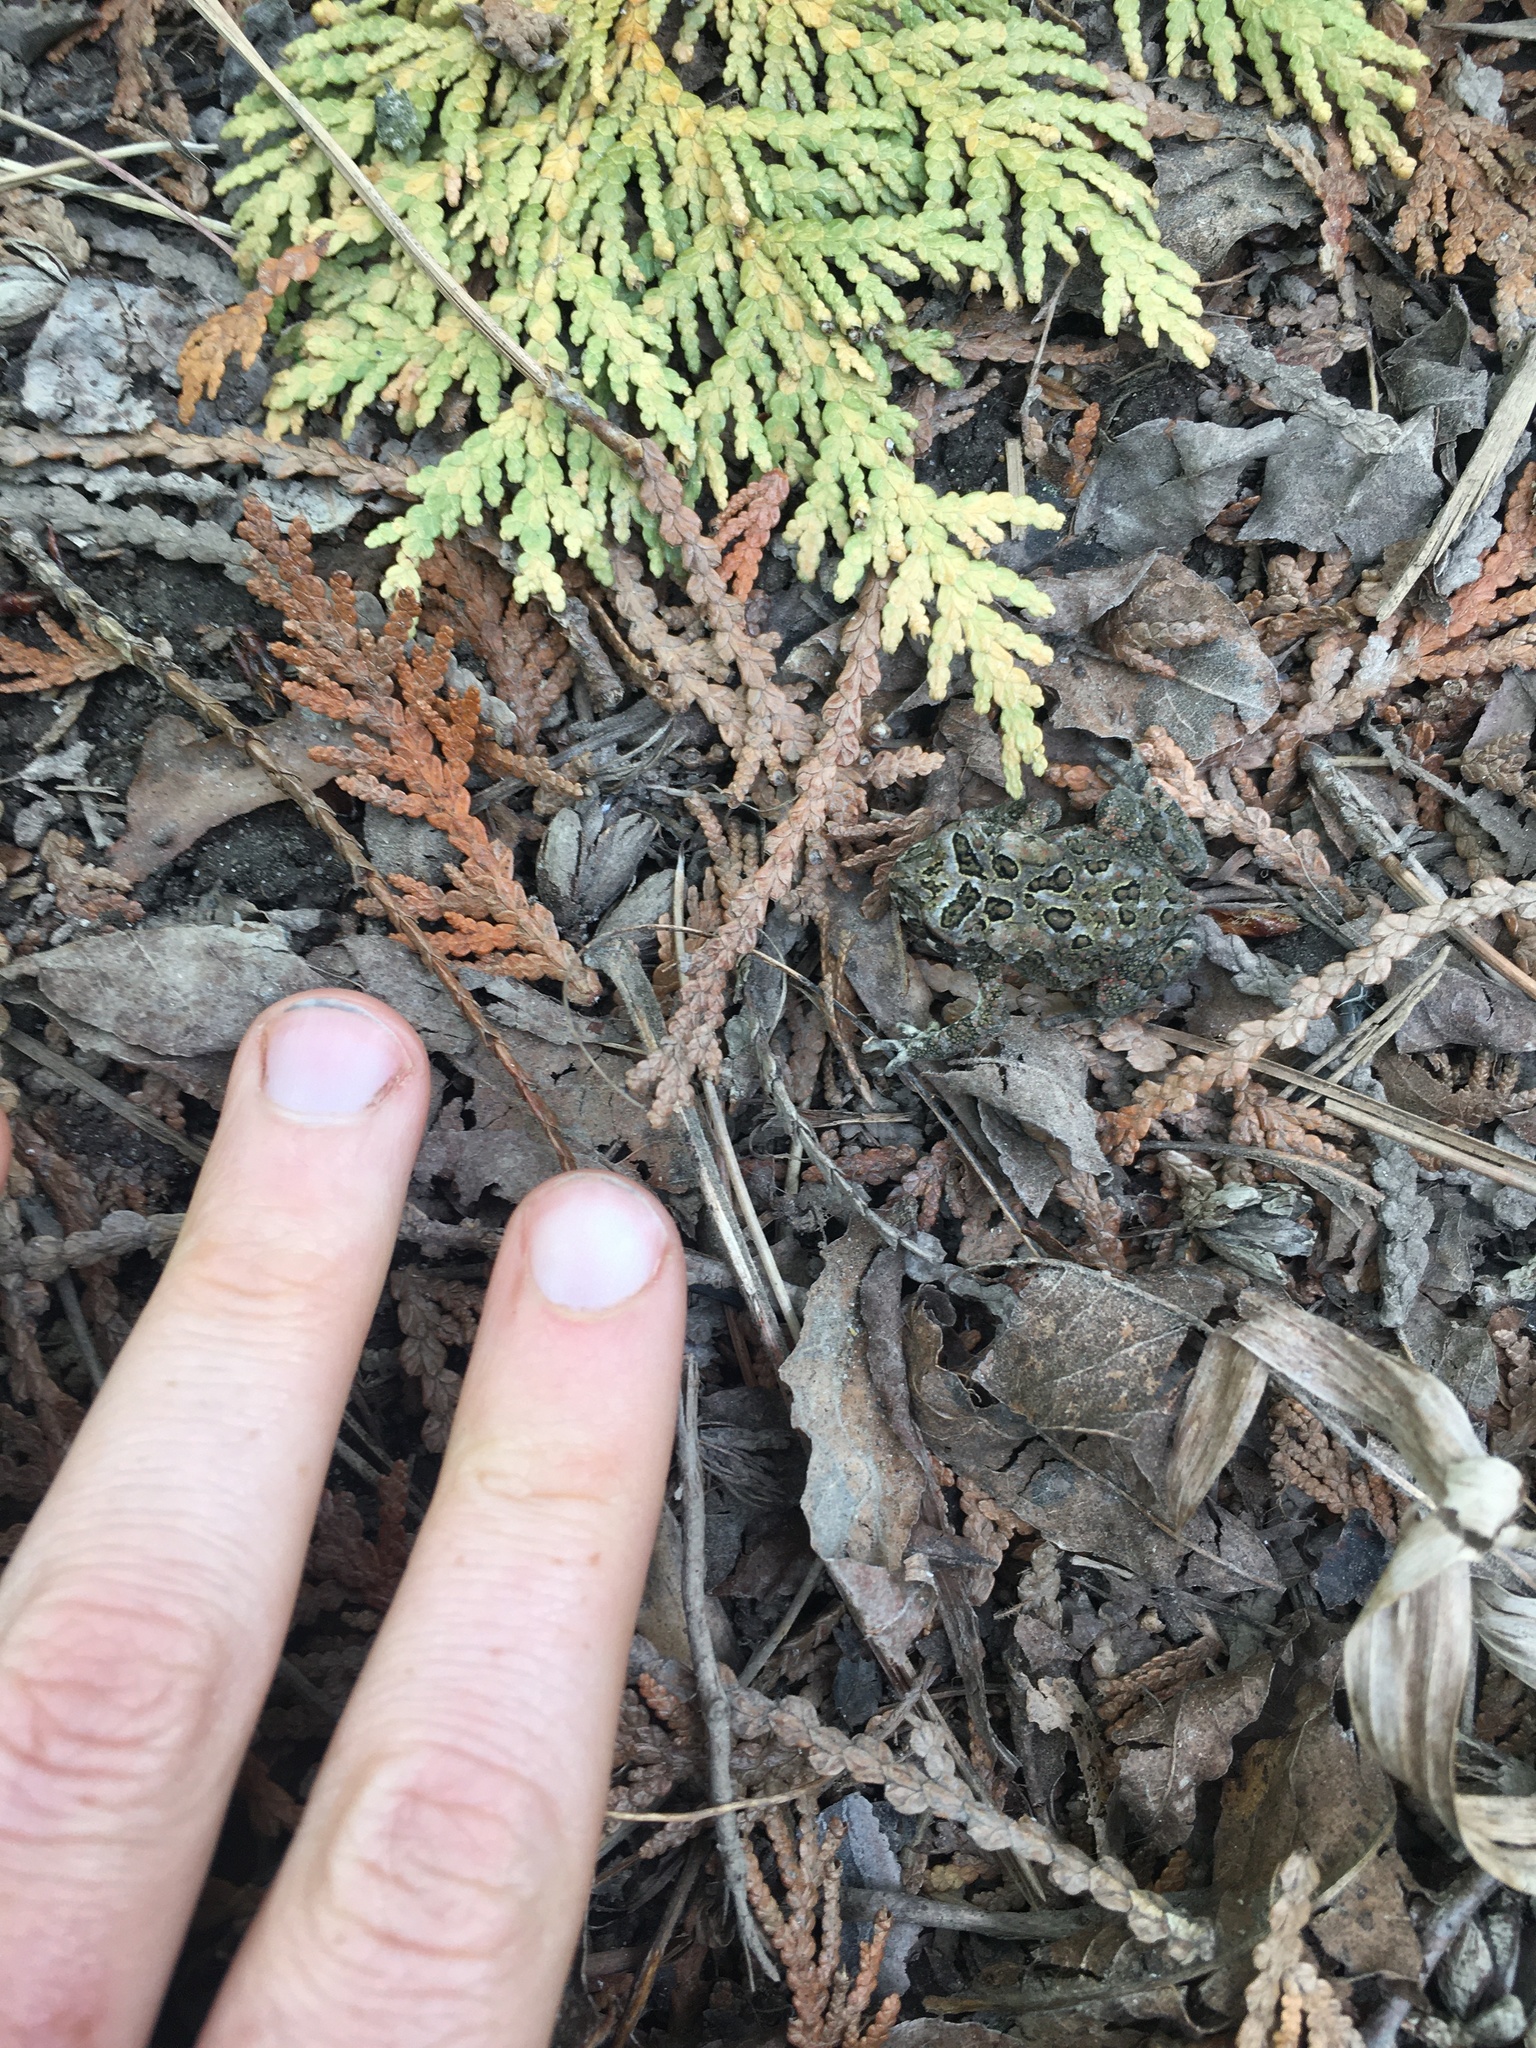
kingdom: Animalia
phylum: Chordata
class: Amphibia
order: Anura
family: Bufonidae
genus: Anaxyrus
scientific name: Anaxyrus americanus
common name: American toad
